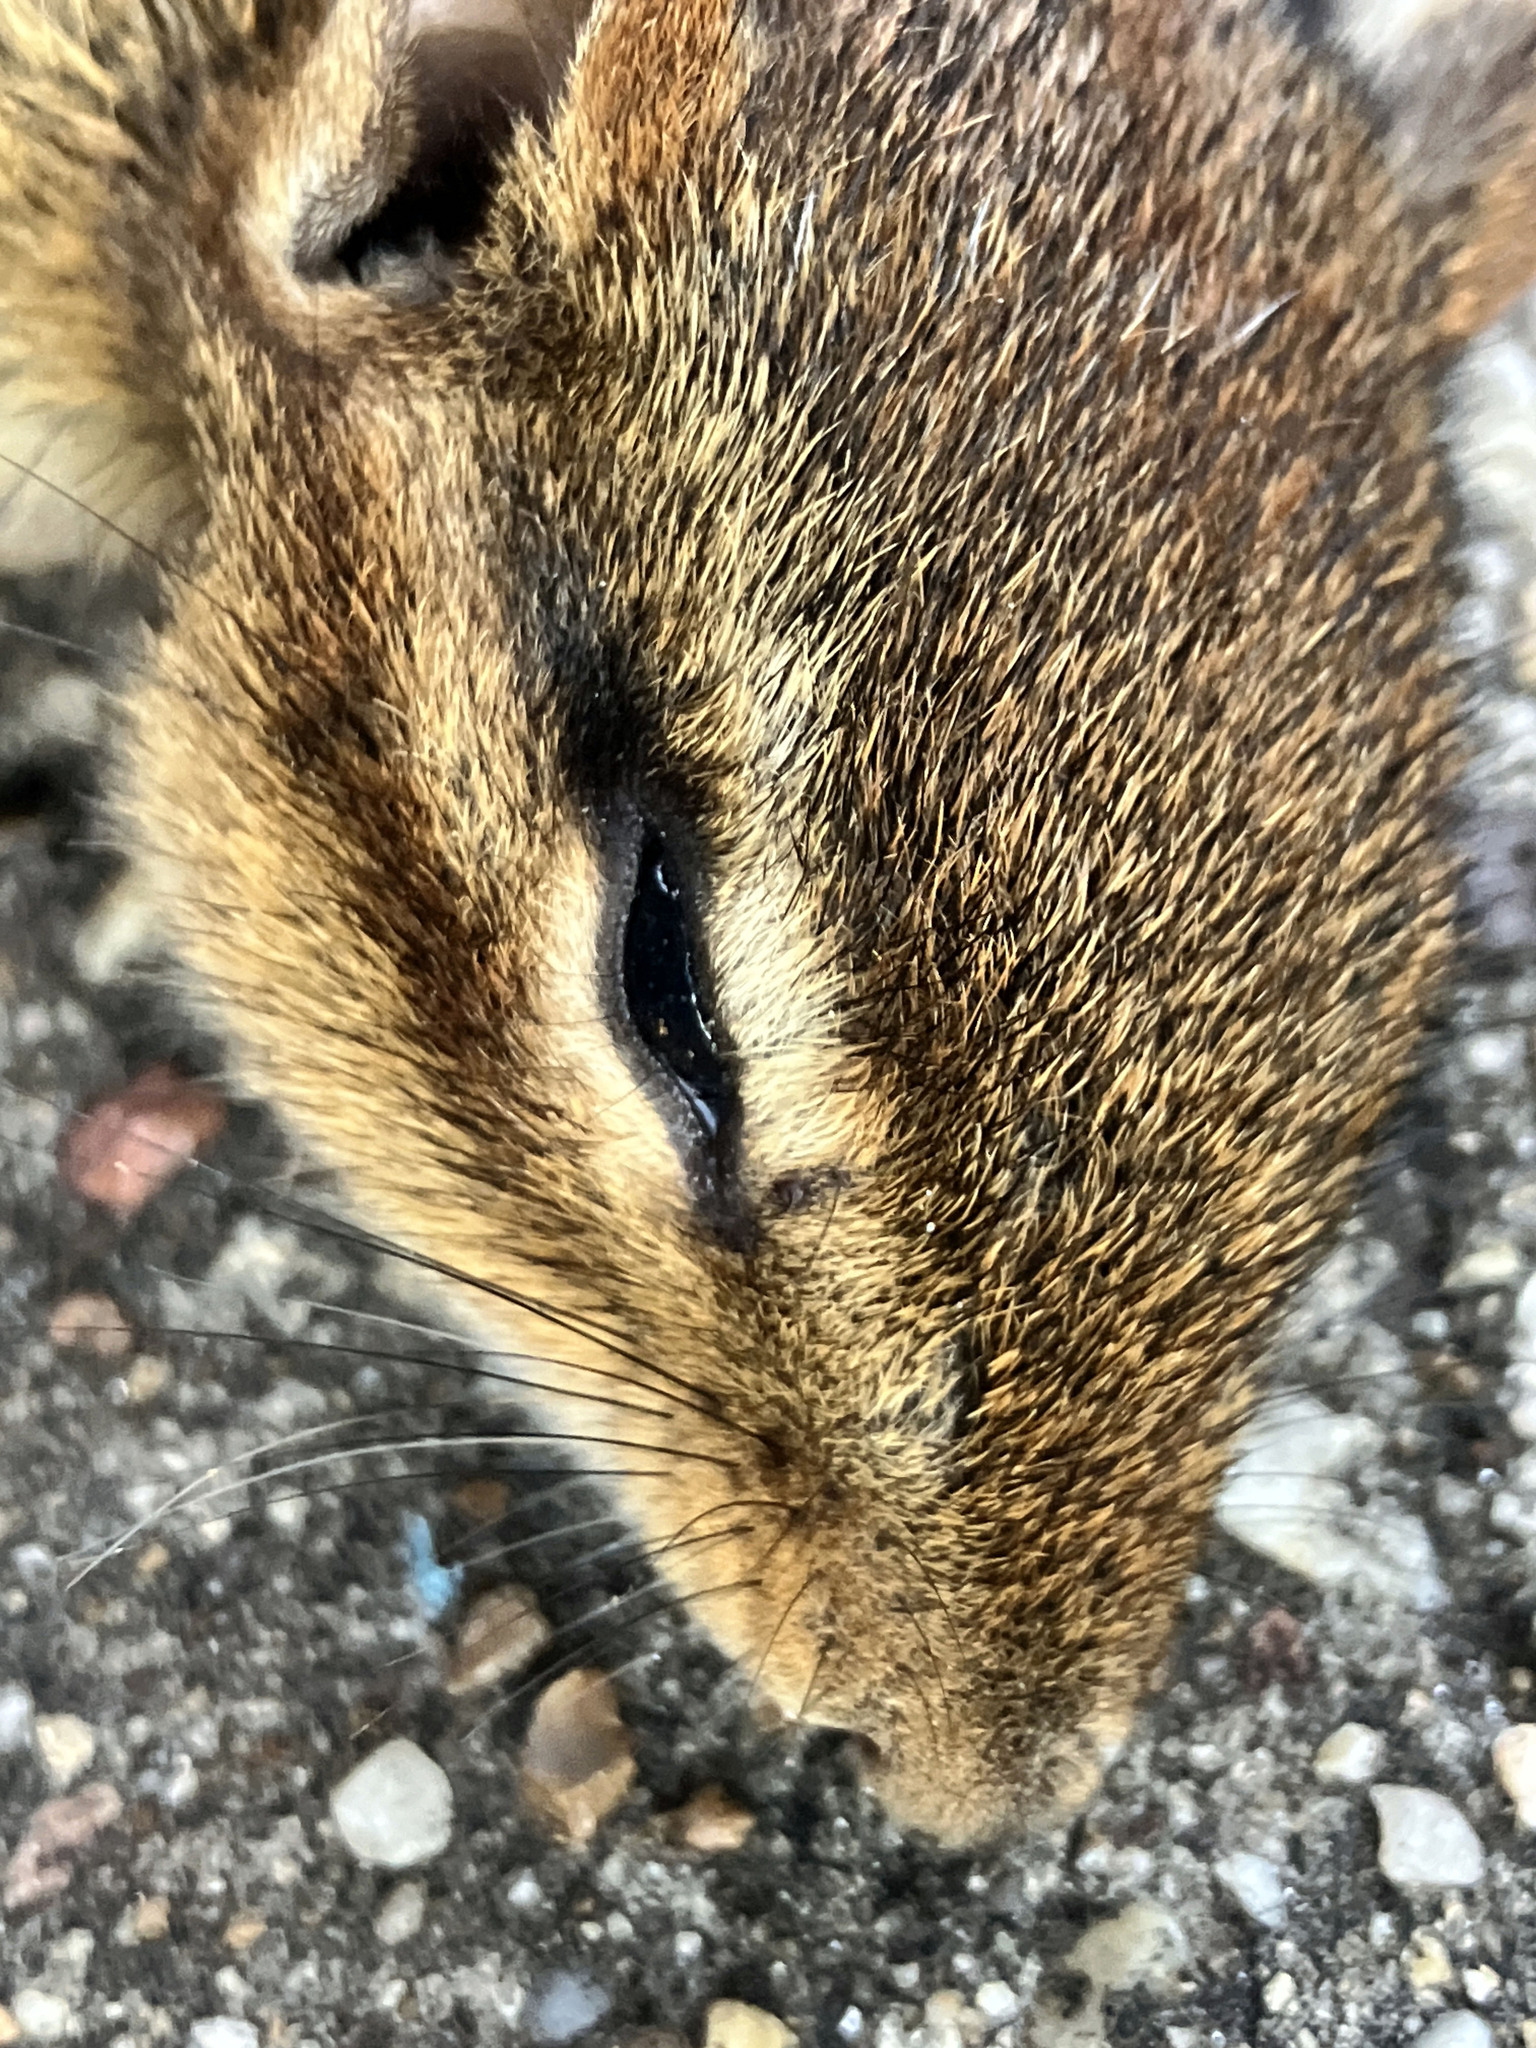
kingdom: Animalia
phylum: Chordata
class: Mammalia
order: Rodentia
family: Sciuridae
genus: Tamias
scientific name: Tamias striatus
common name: Eastern chipmunk
